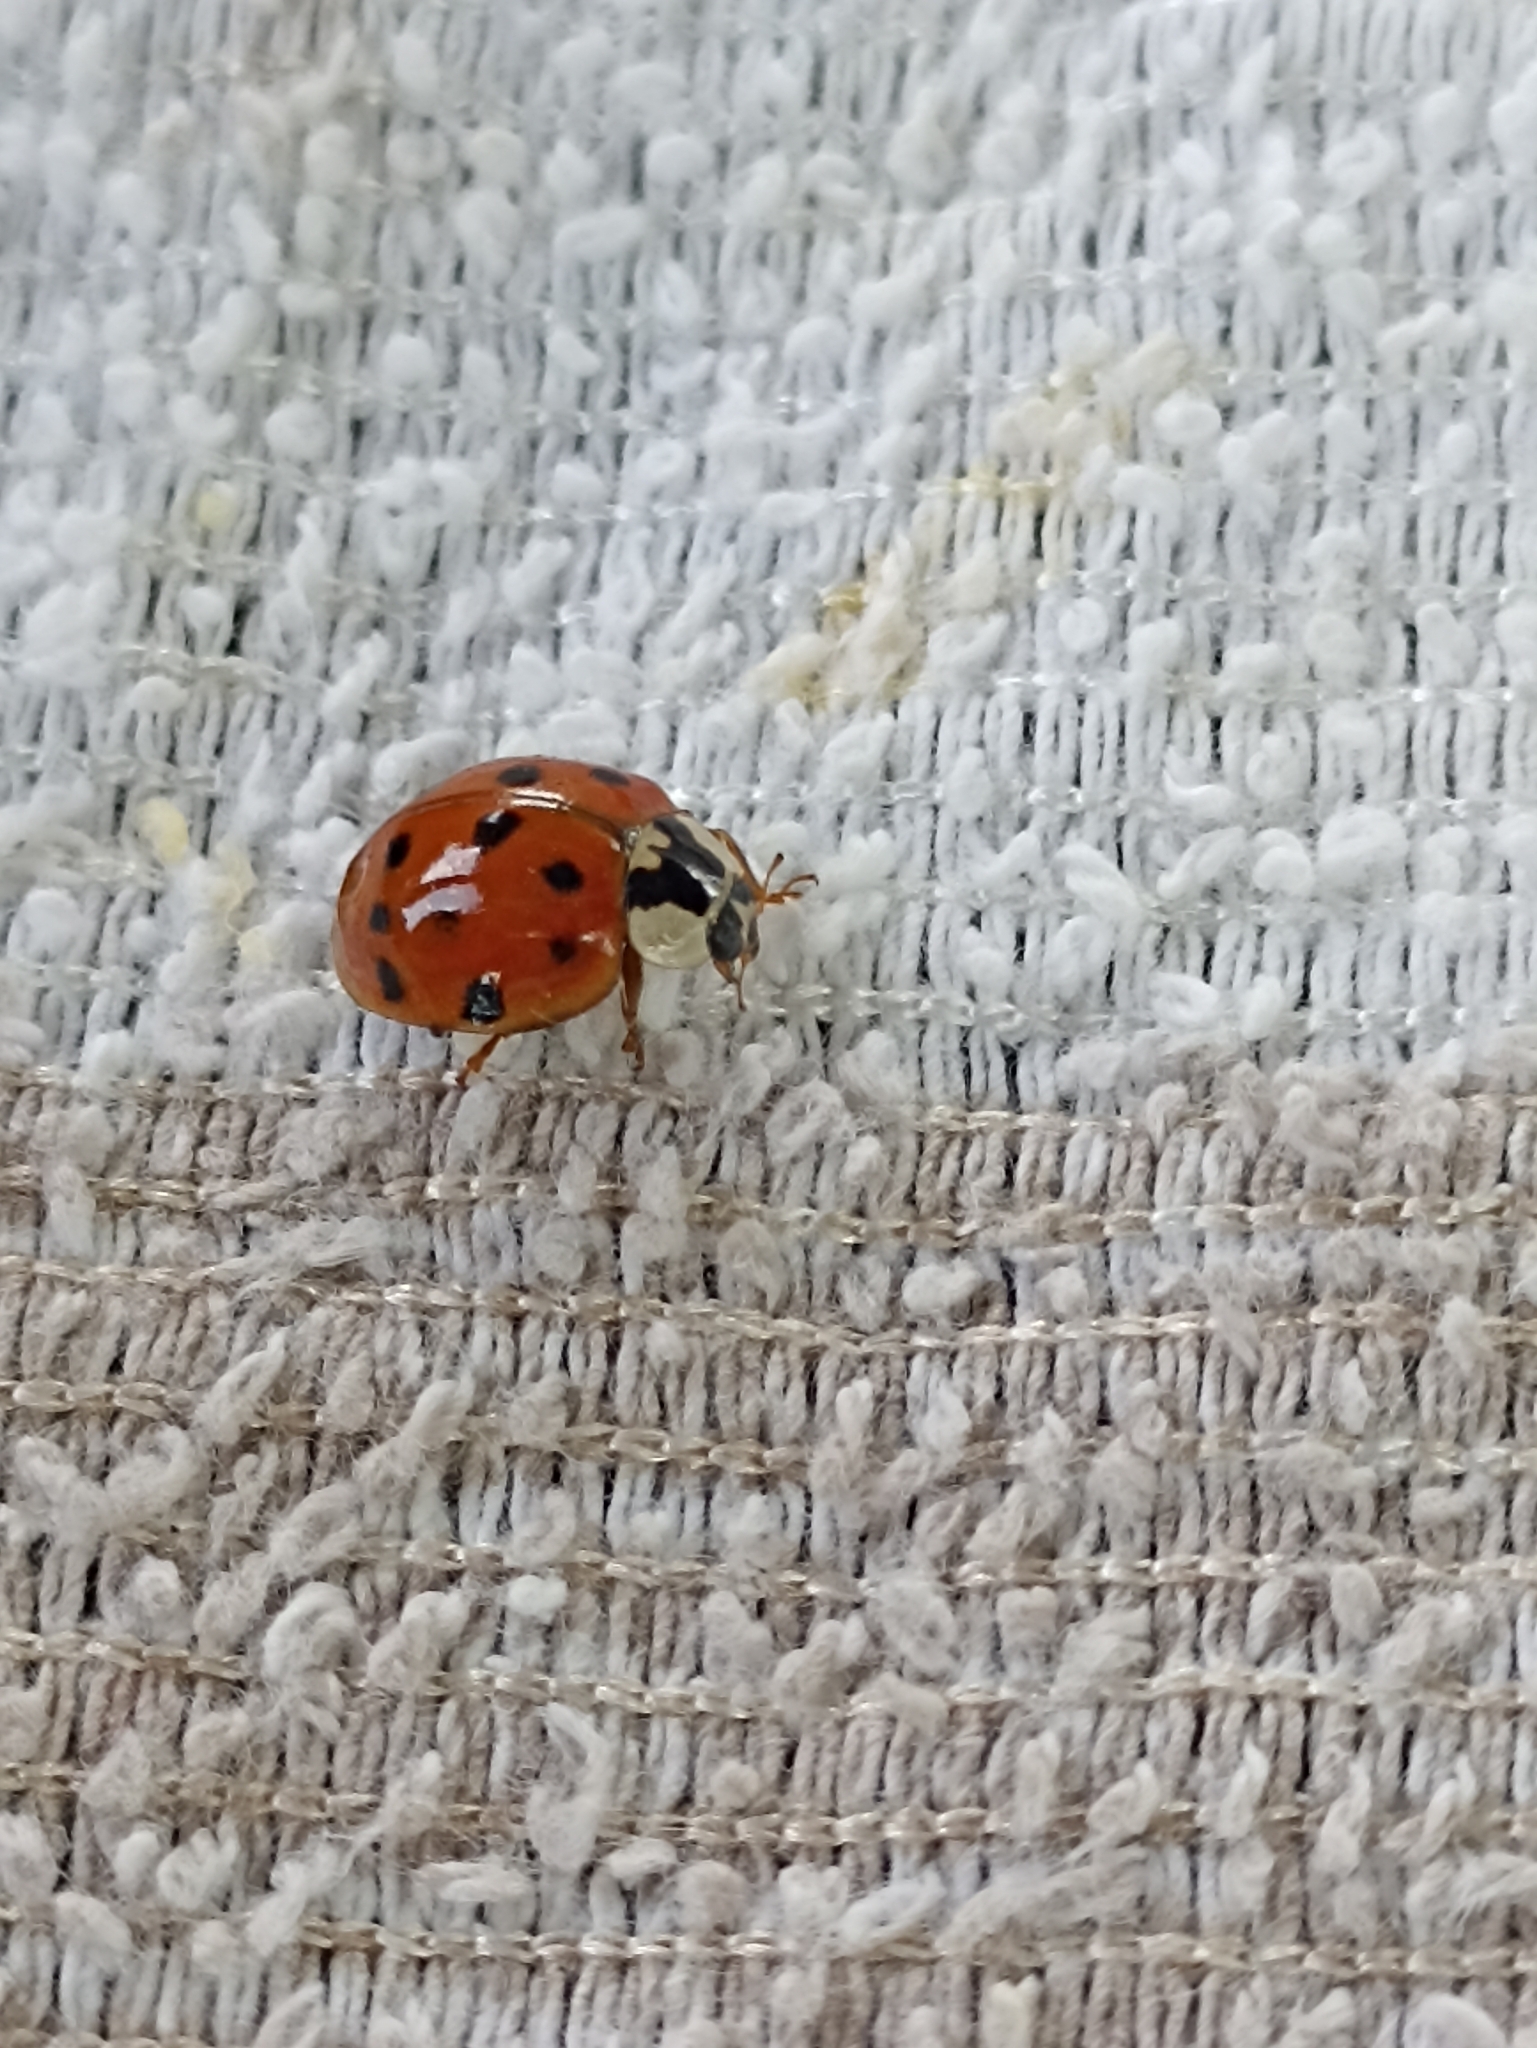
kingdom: Animalia
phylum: Arthropoda
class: Insecta
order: Coleoptera
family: Coccinellidae
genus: Harmonia
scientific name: Harmonia axyridis
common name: Harlequin ladybird
